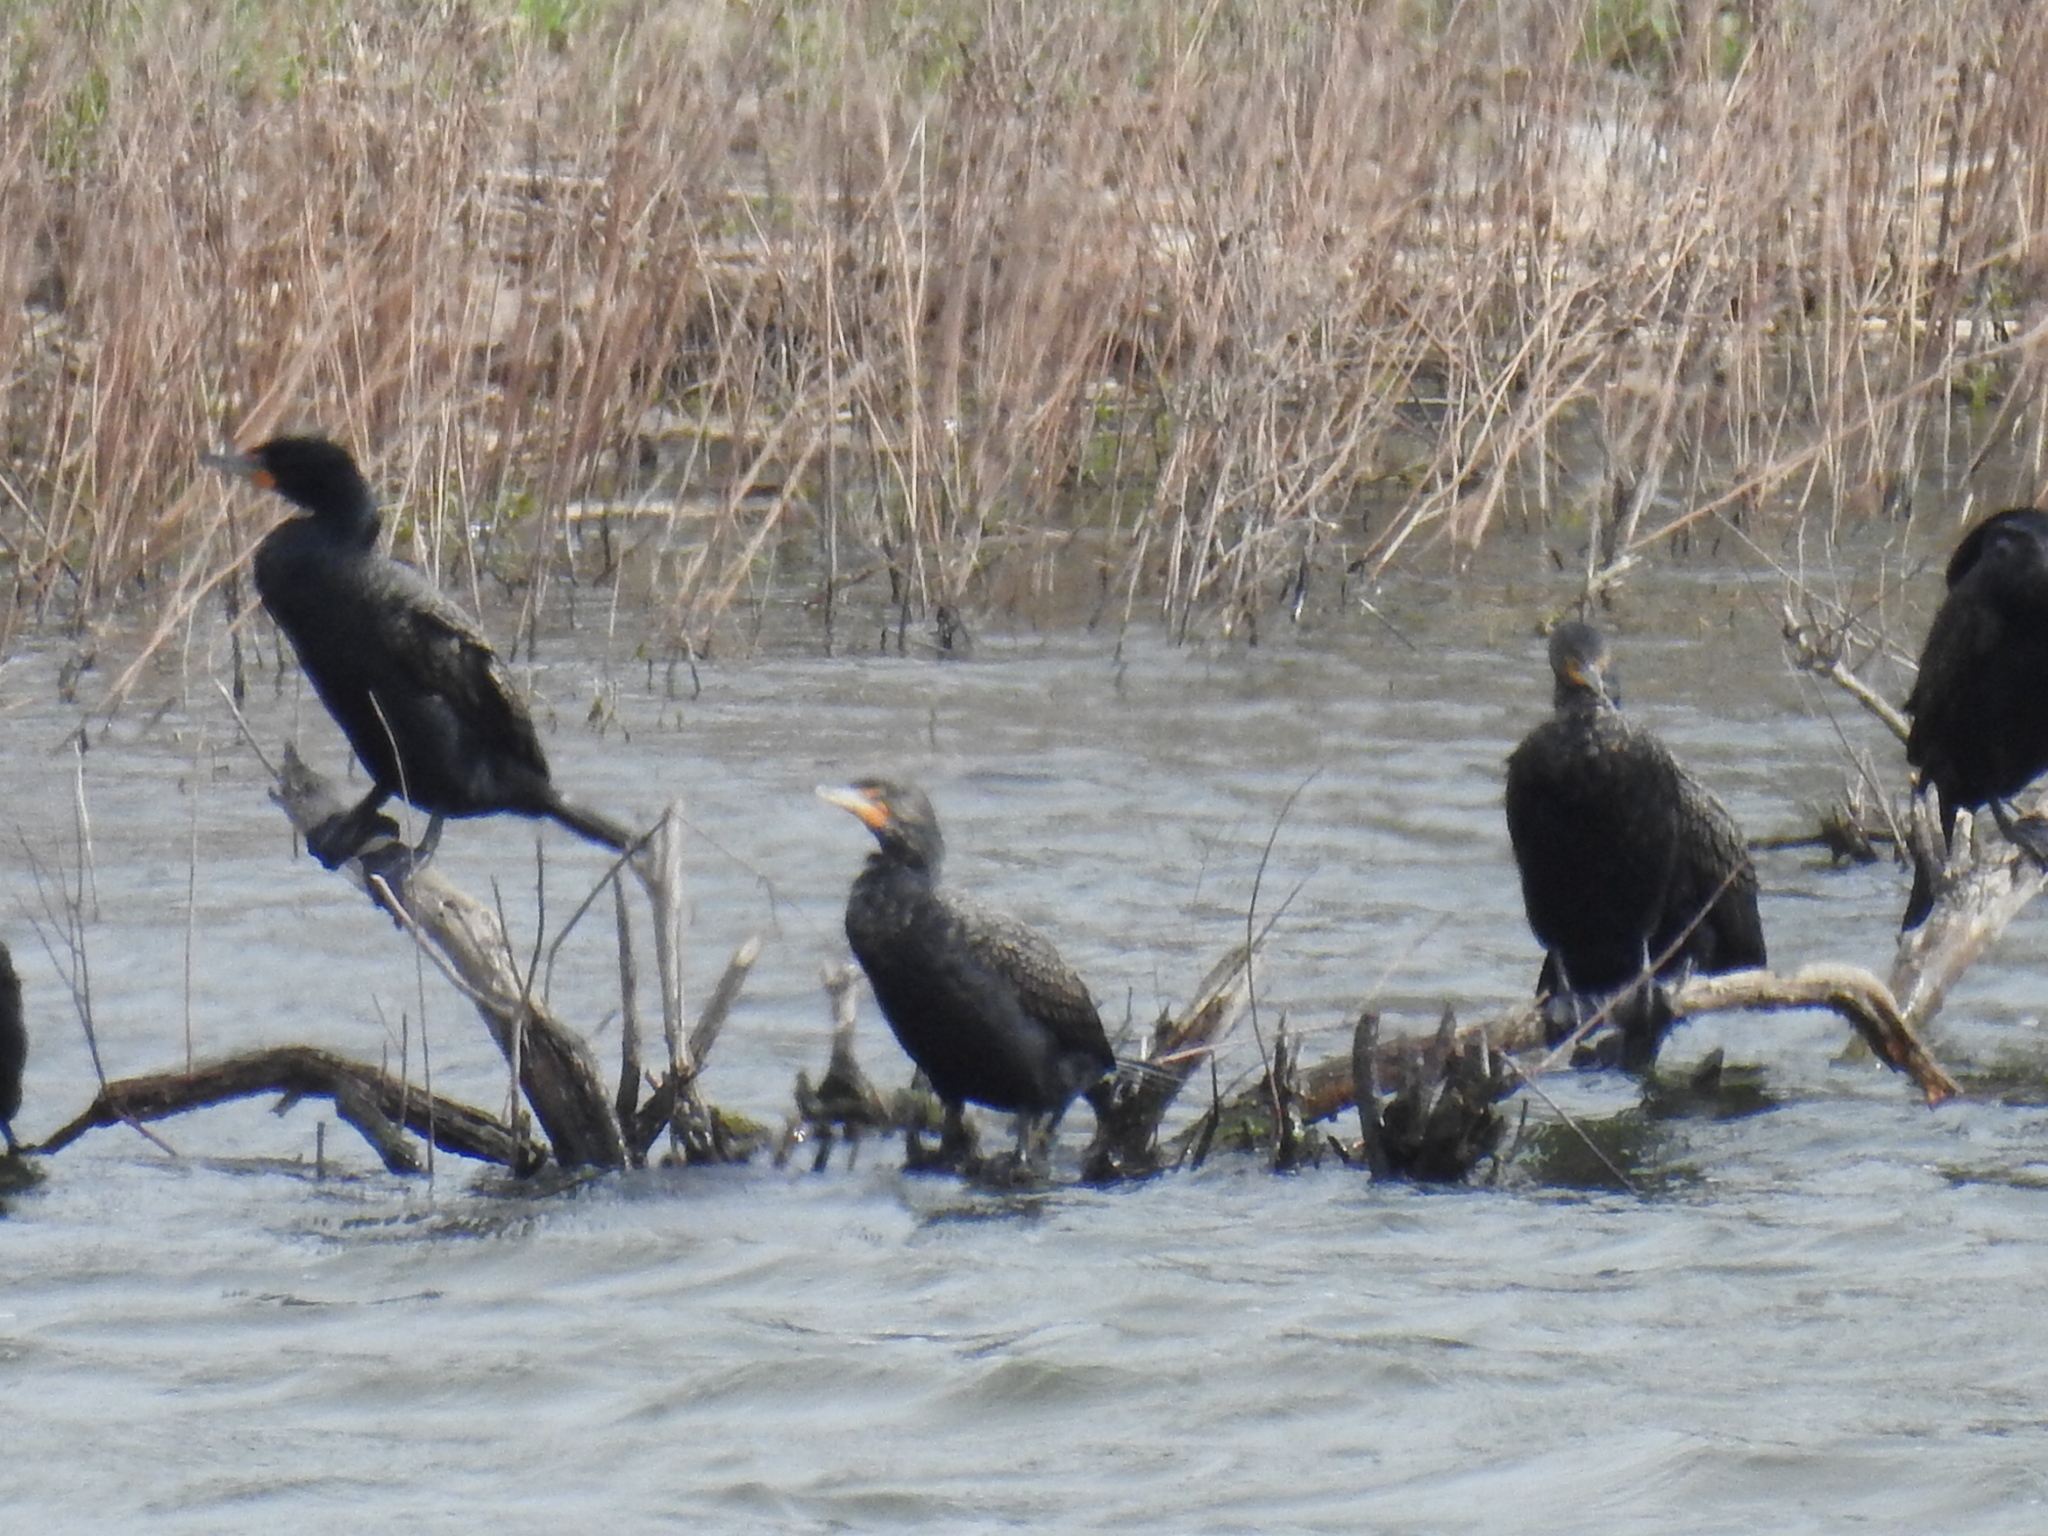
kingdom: Animalia
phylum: Chordata
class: Aves
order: Suliformes
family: Phalacrocoracidae
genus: Phalacrocorax
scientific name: Phalacrocorax auritus
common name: Double-crested cormorant
